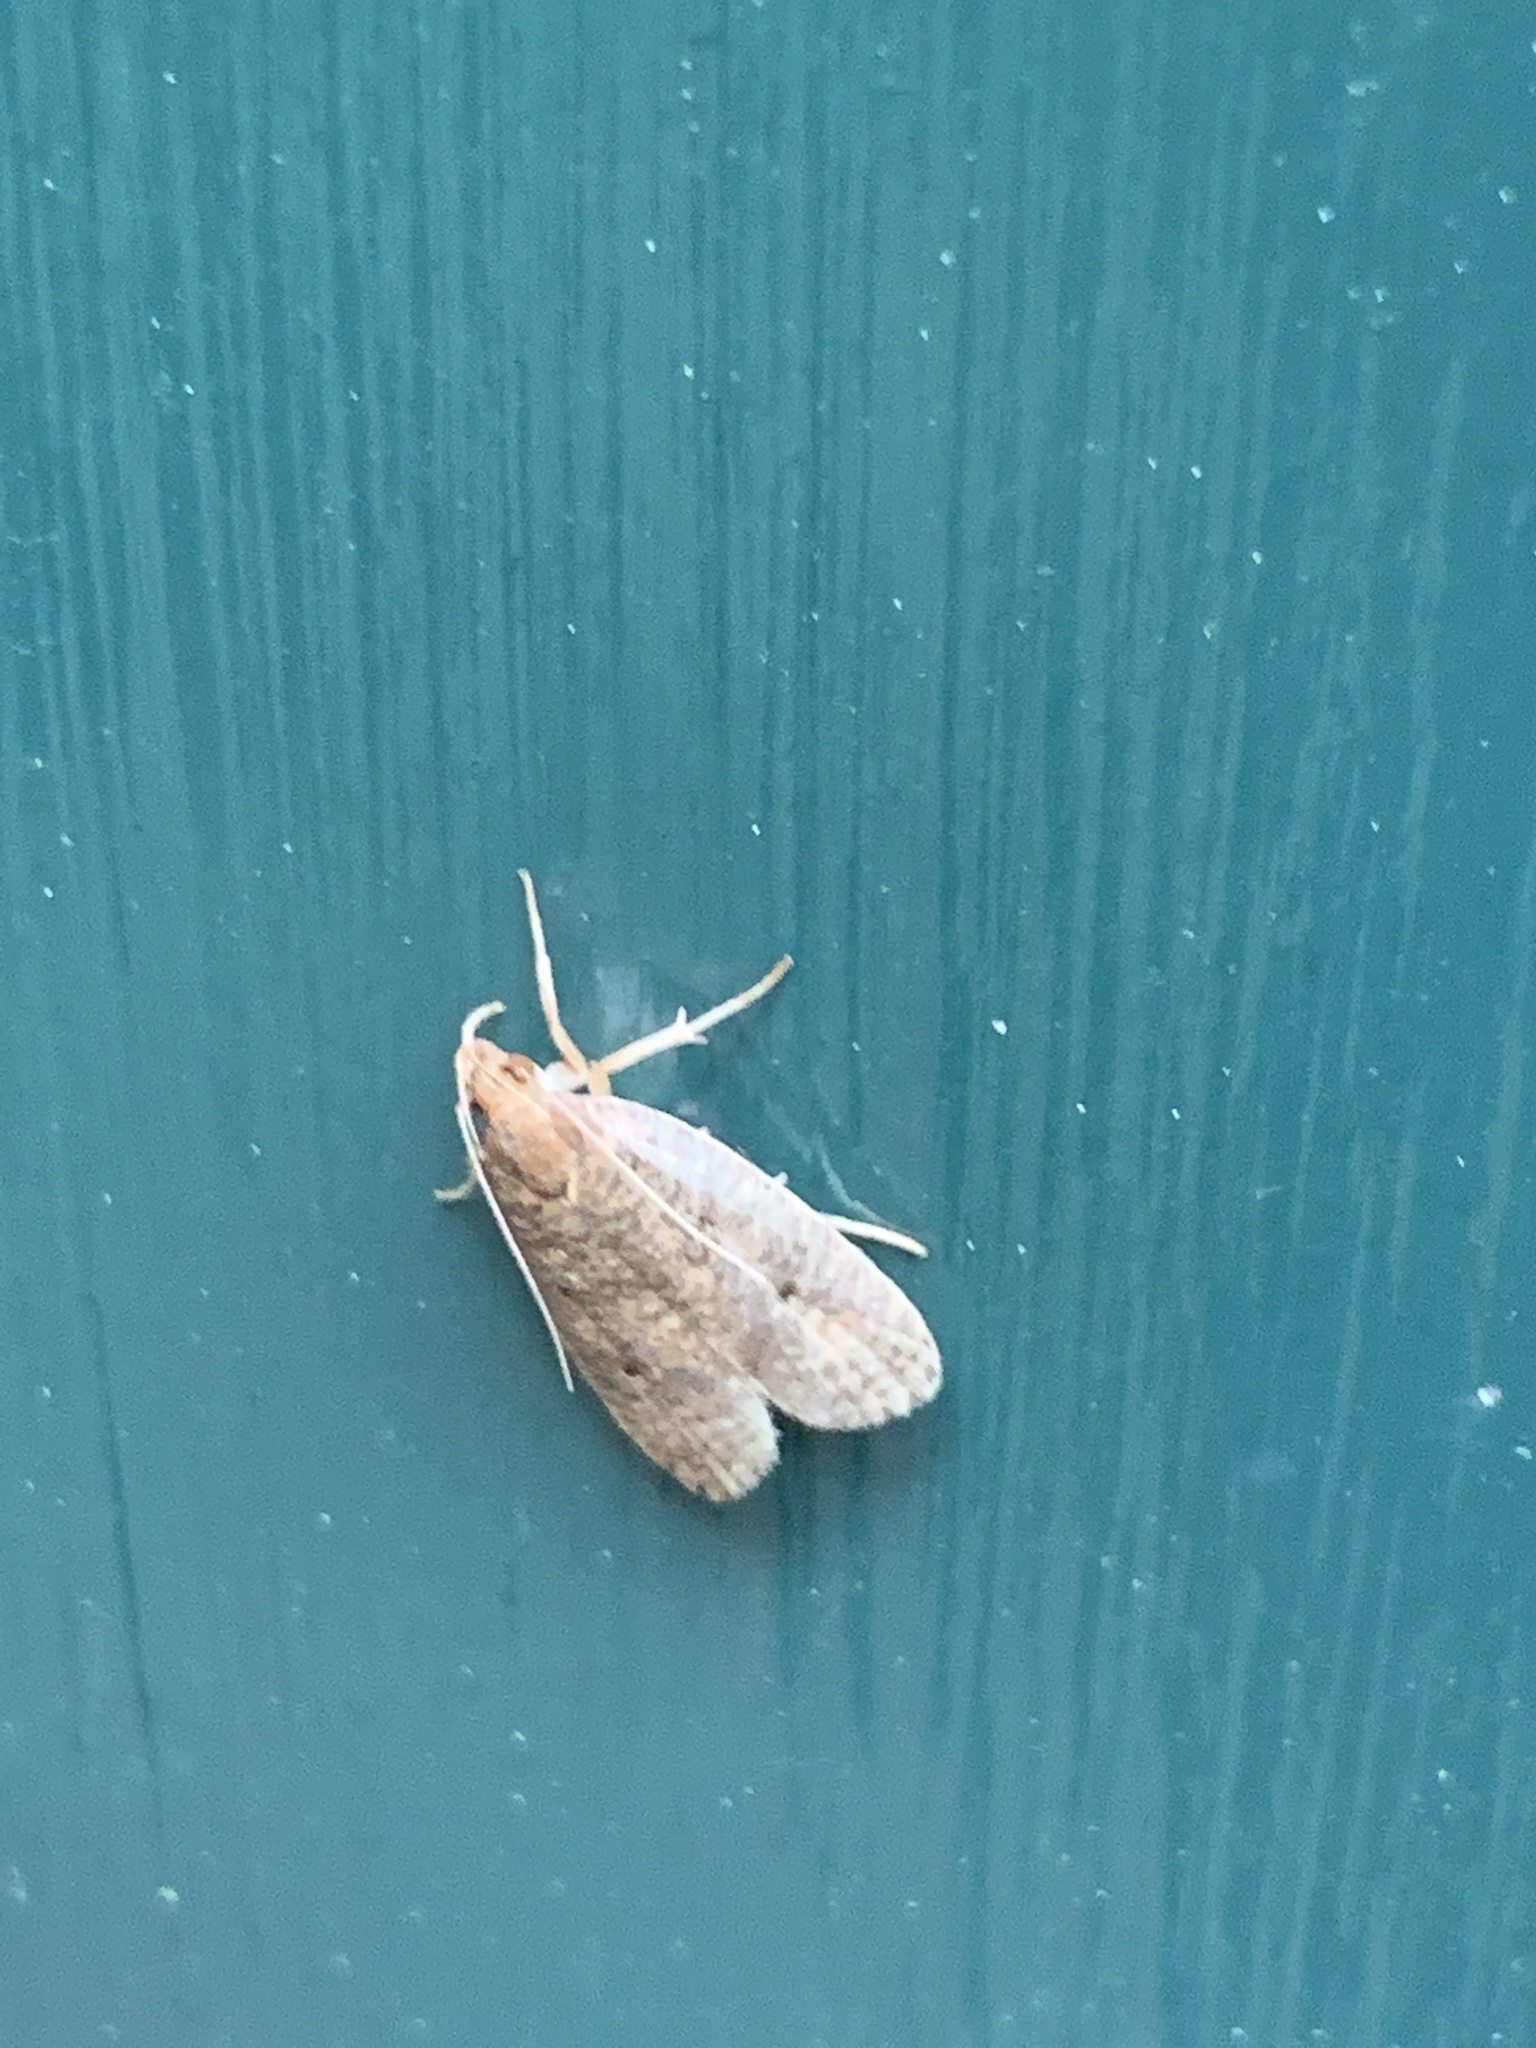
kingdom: Animalia
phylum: Arthropoda
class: Insecta
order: Lepidoptera
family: Depressariidae
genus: Psilocorsis
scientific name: Psilocorsis reflexella
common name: Dotted leaftier moth
